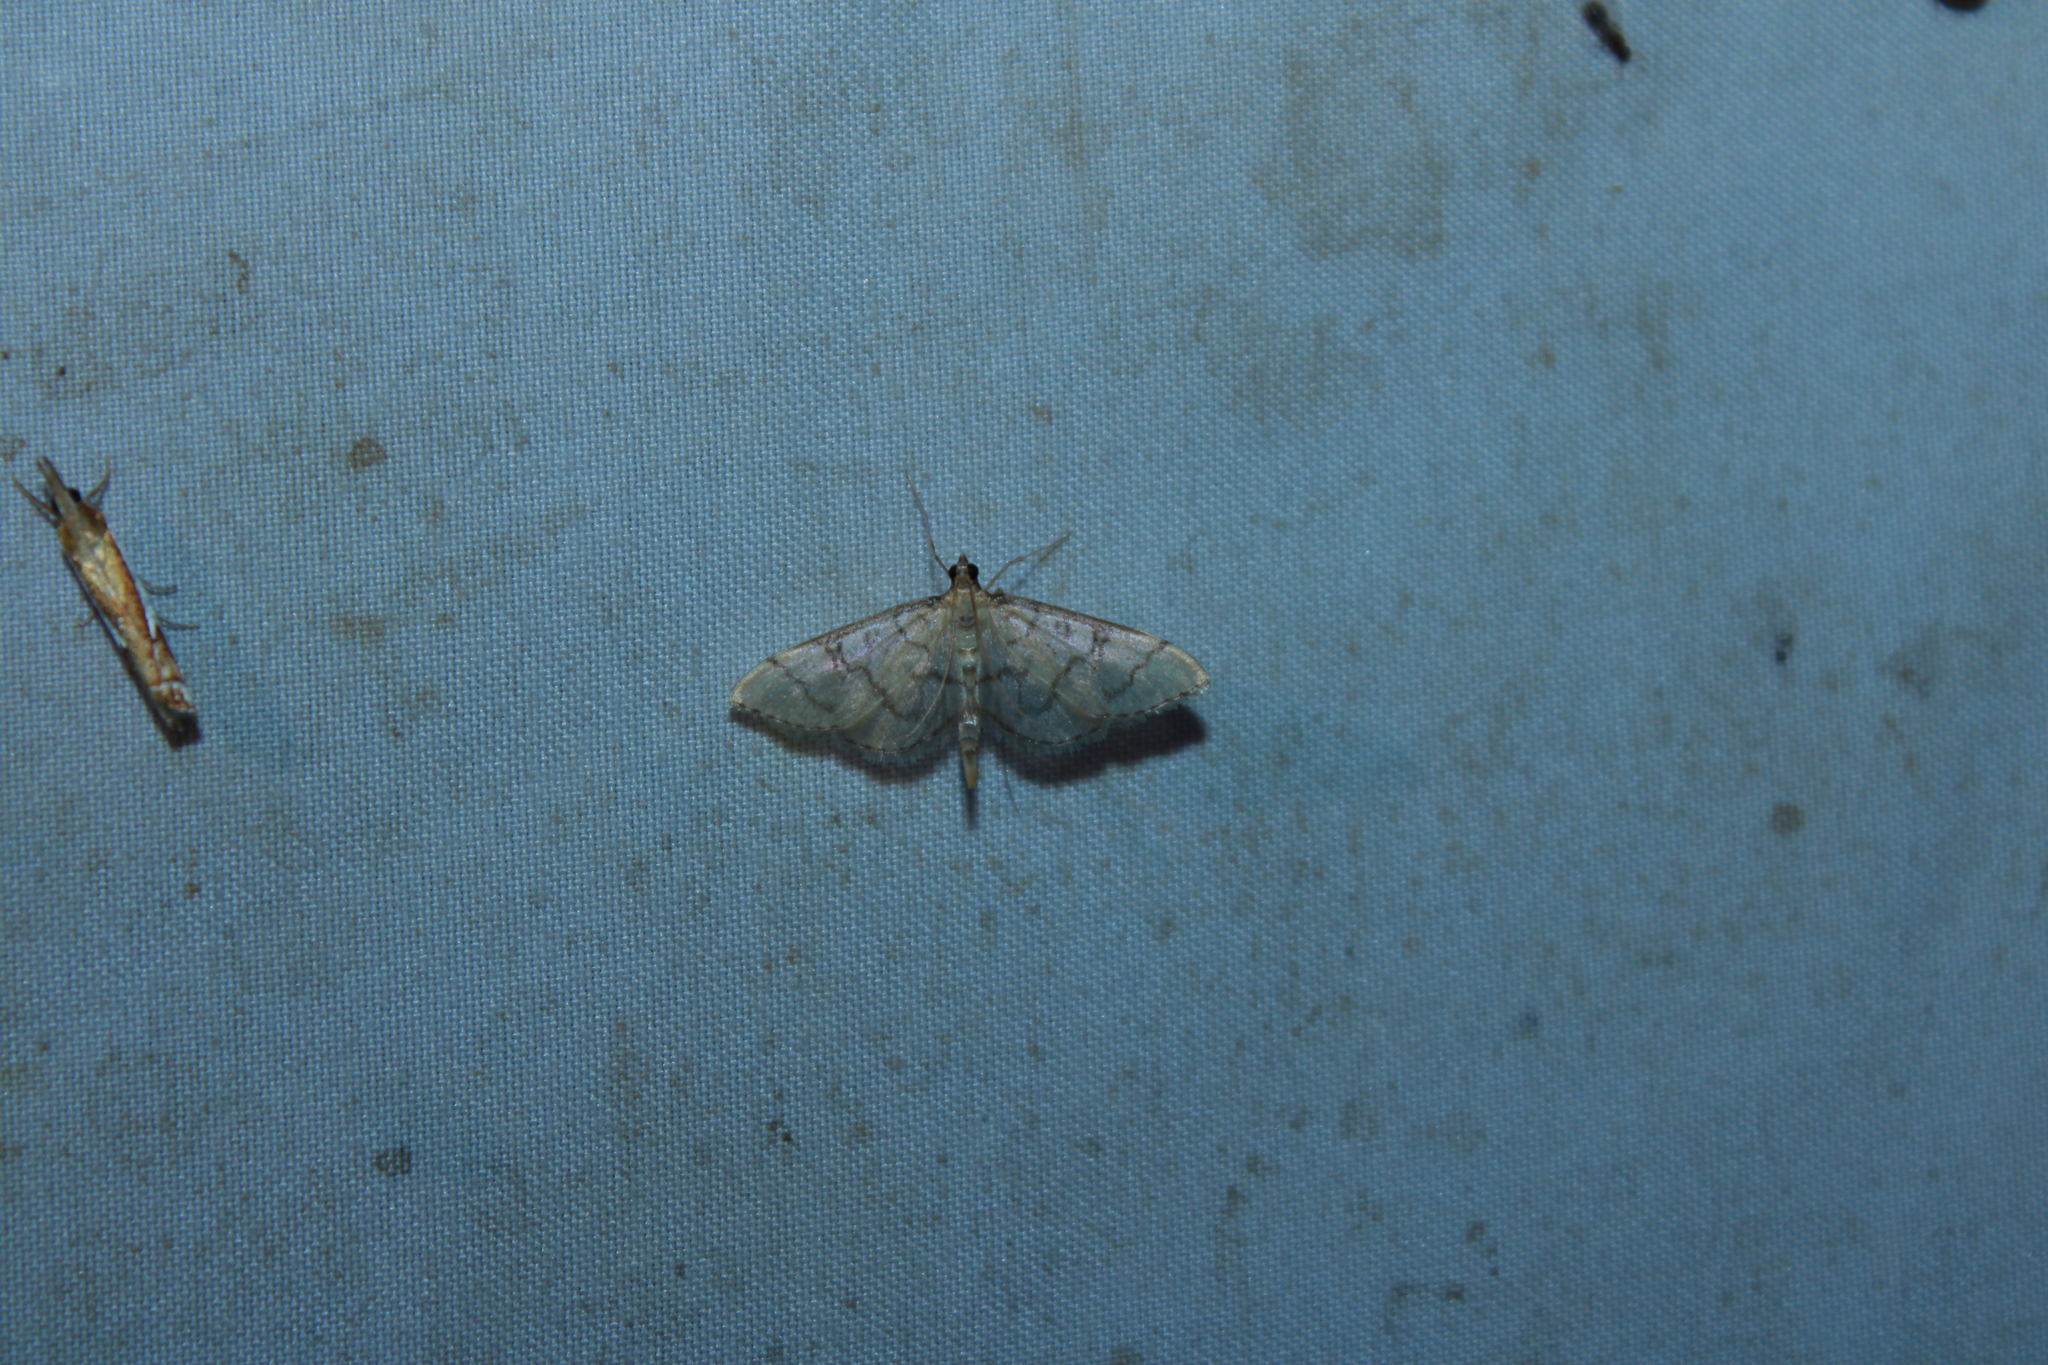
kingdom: Animalia
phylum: Arthropoda
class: Insecta
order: Lepidoptera
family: Crambidae
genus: Lamprosema
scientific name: Lamprosema Blepharomastix ranalis
